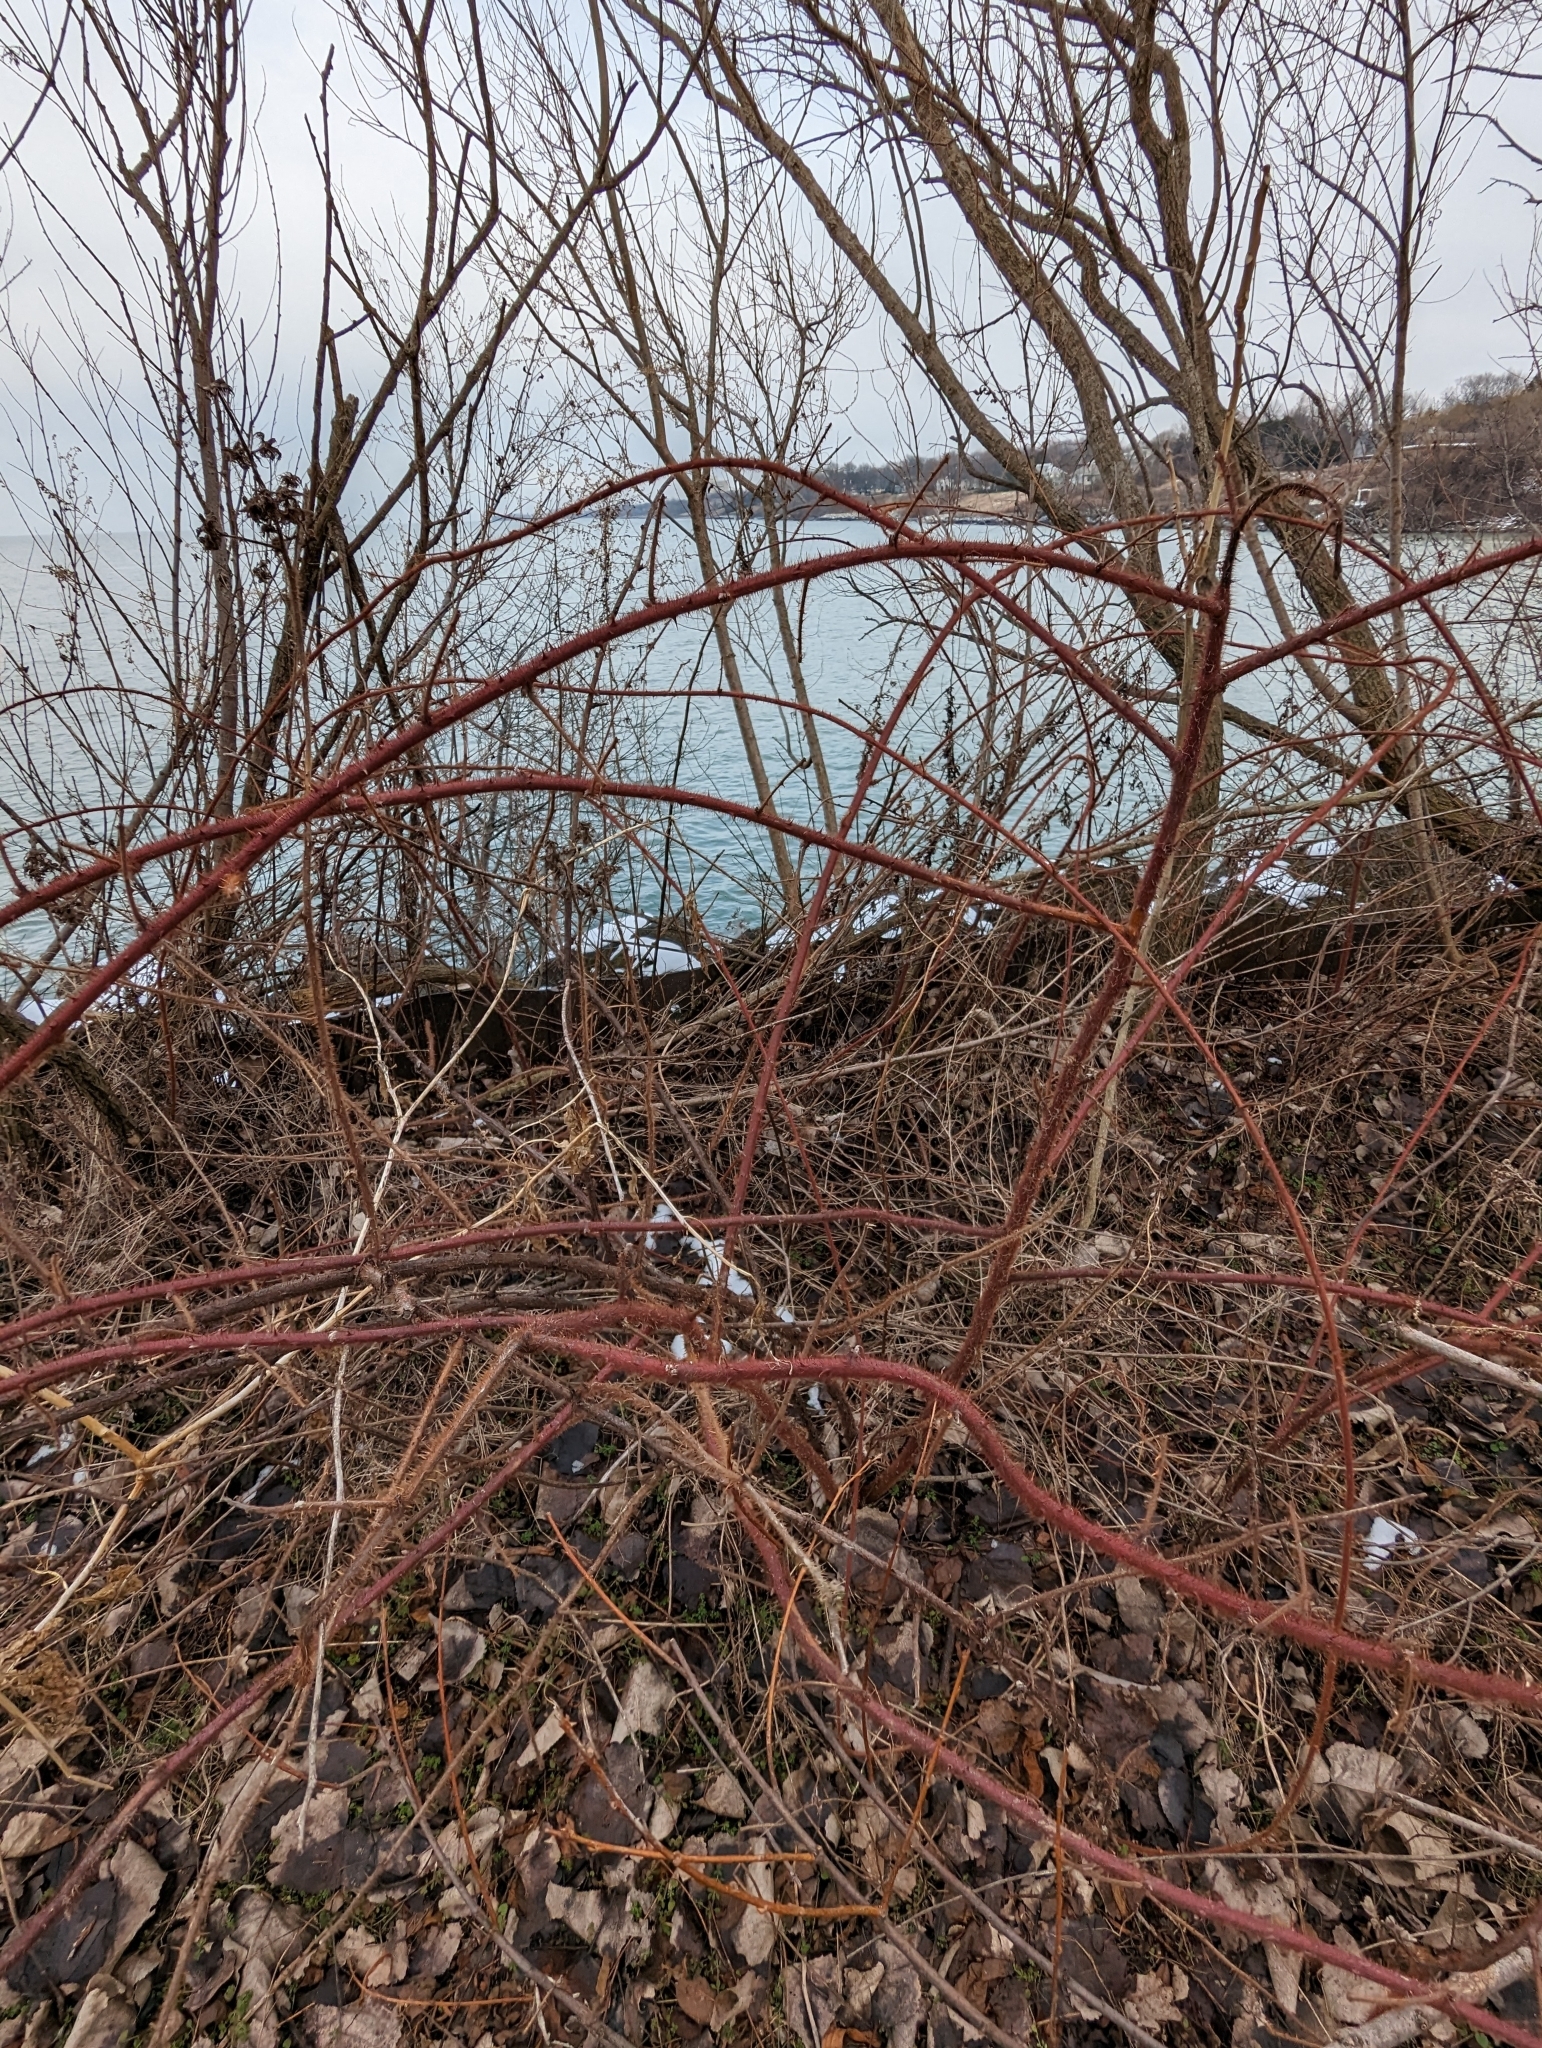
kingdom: Plantae
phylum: Tracheophyta
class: Magnoliopsida
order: Rosales
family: Rosaceae
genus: Rubus
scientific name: Rubus phoenicolasius
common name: Japanese wineberry
